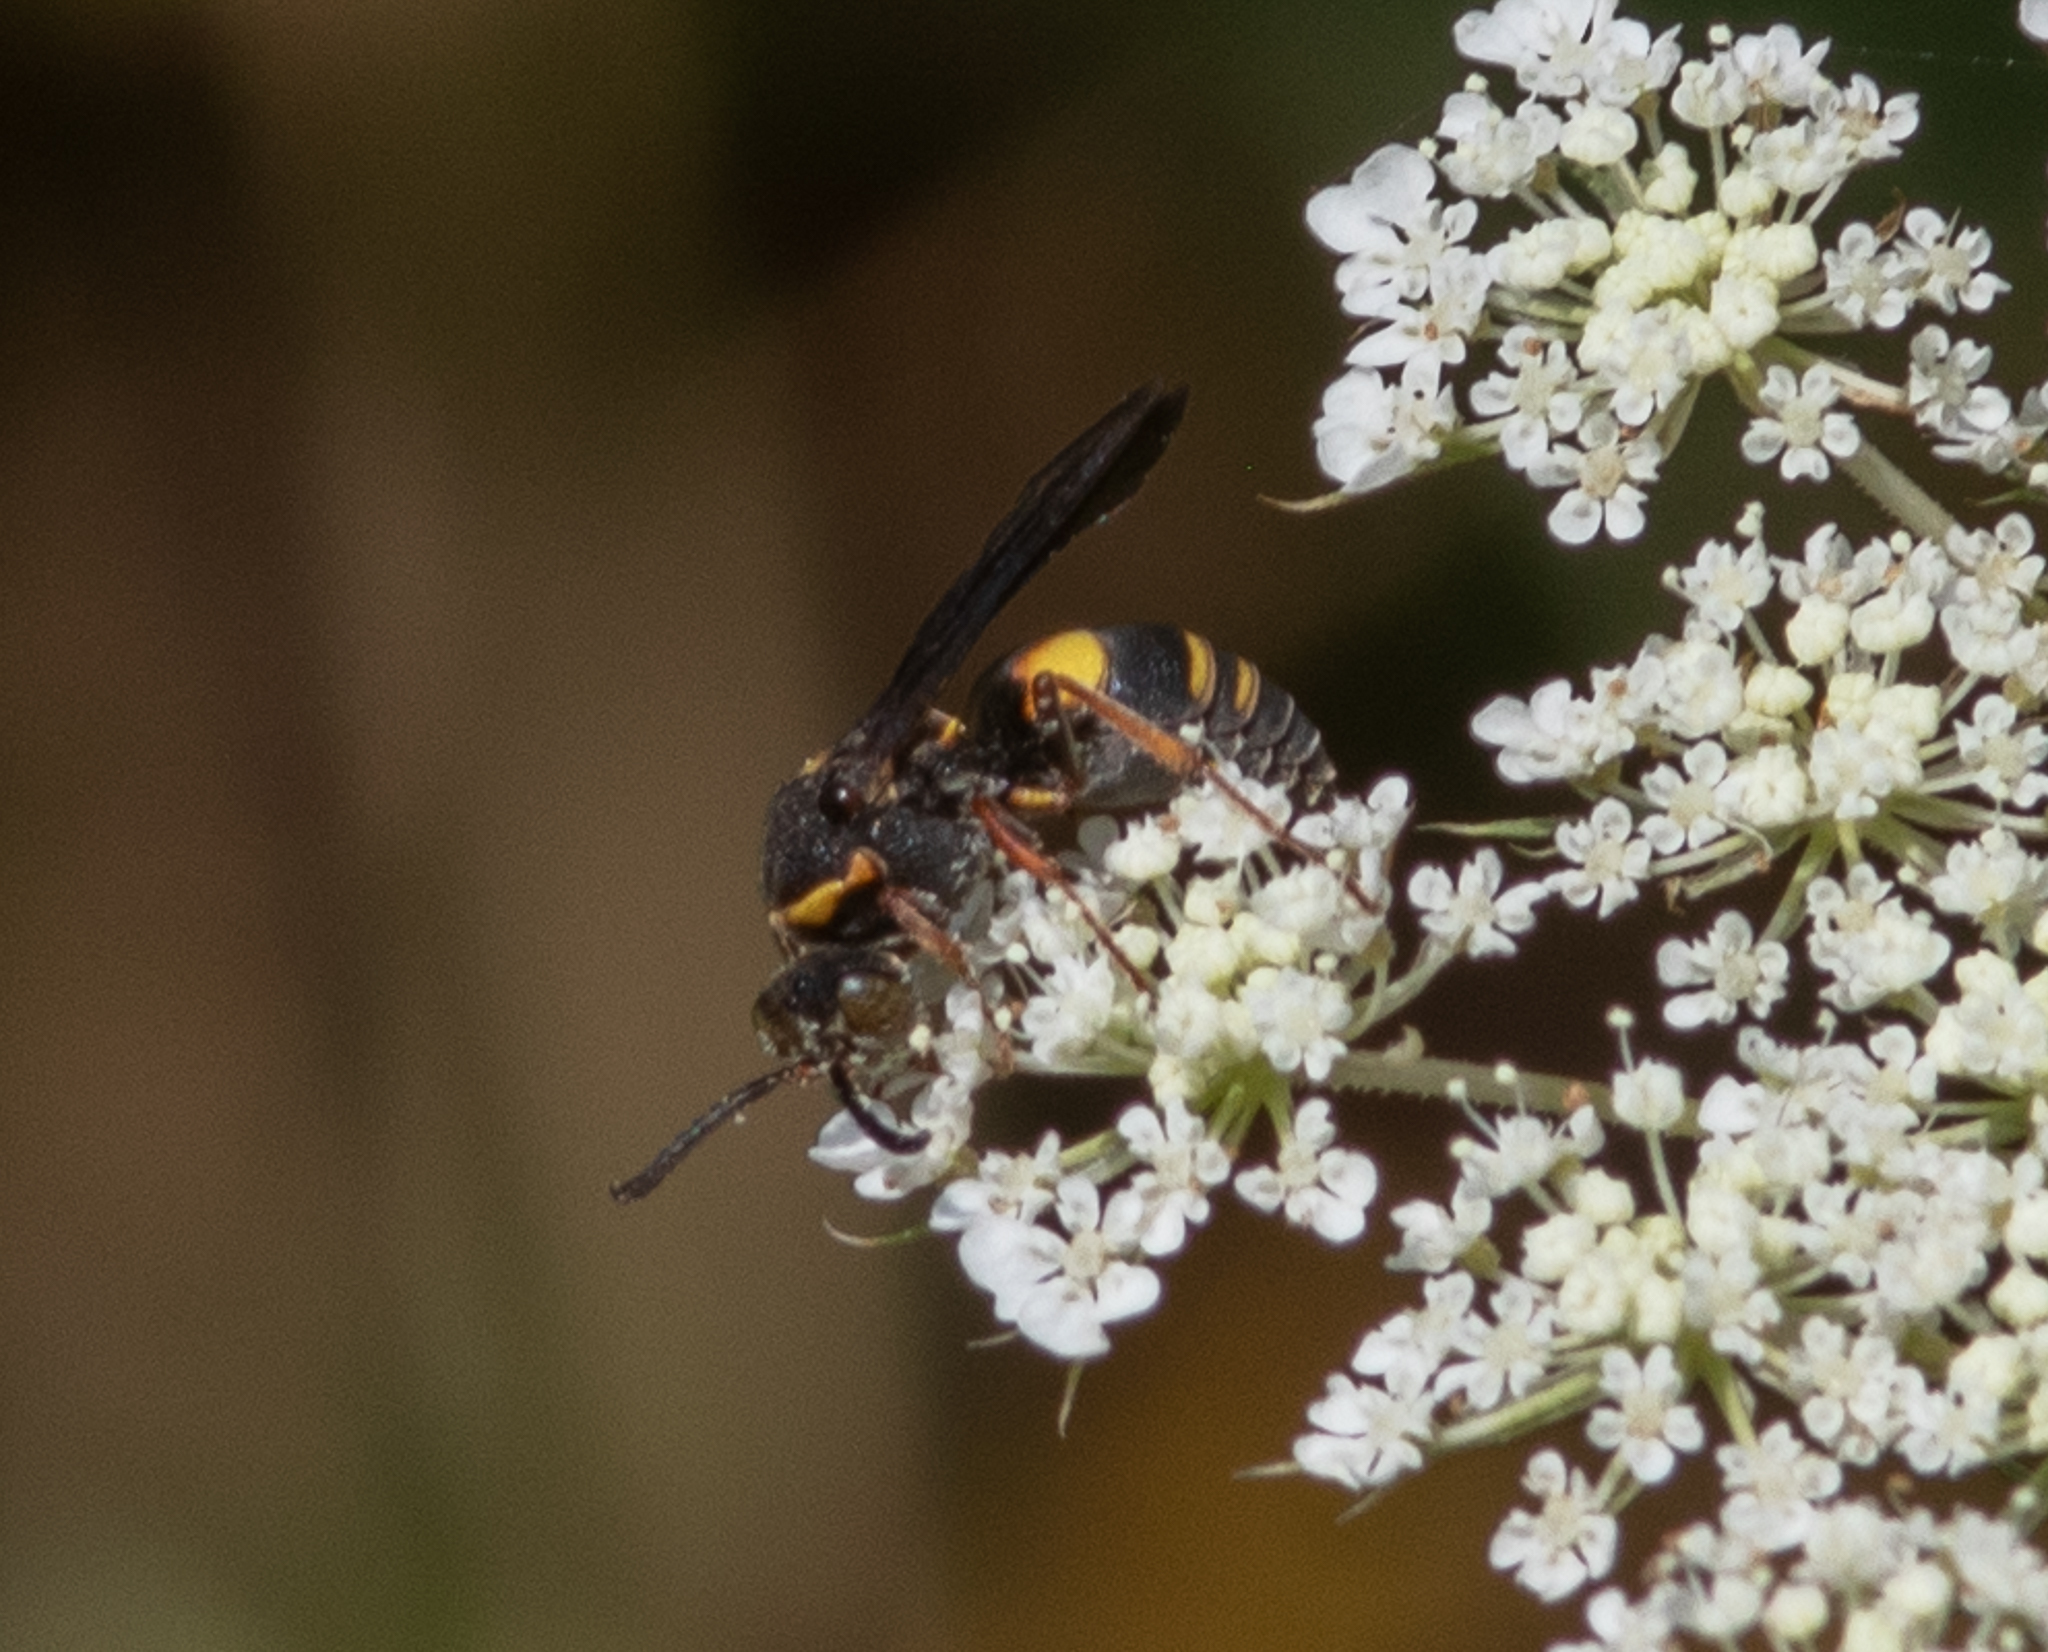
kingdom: Animalia
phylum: Arthropoda
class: Insecta
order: Hymenoptera
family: Crabronidae
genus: Nysson
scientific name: Nysson plagiatus
